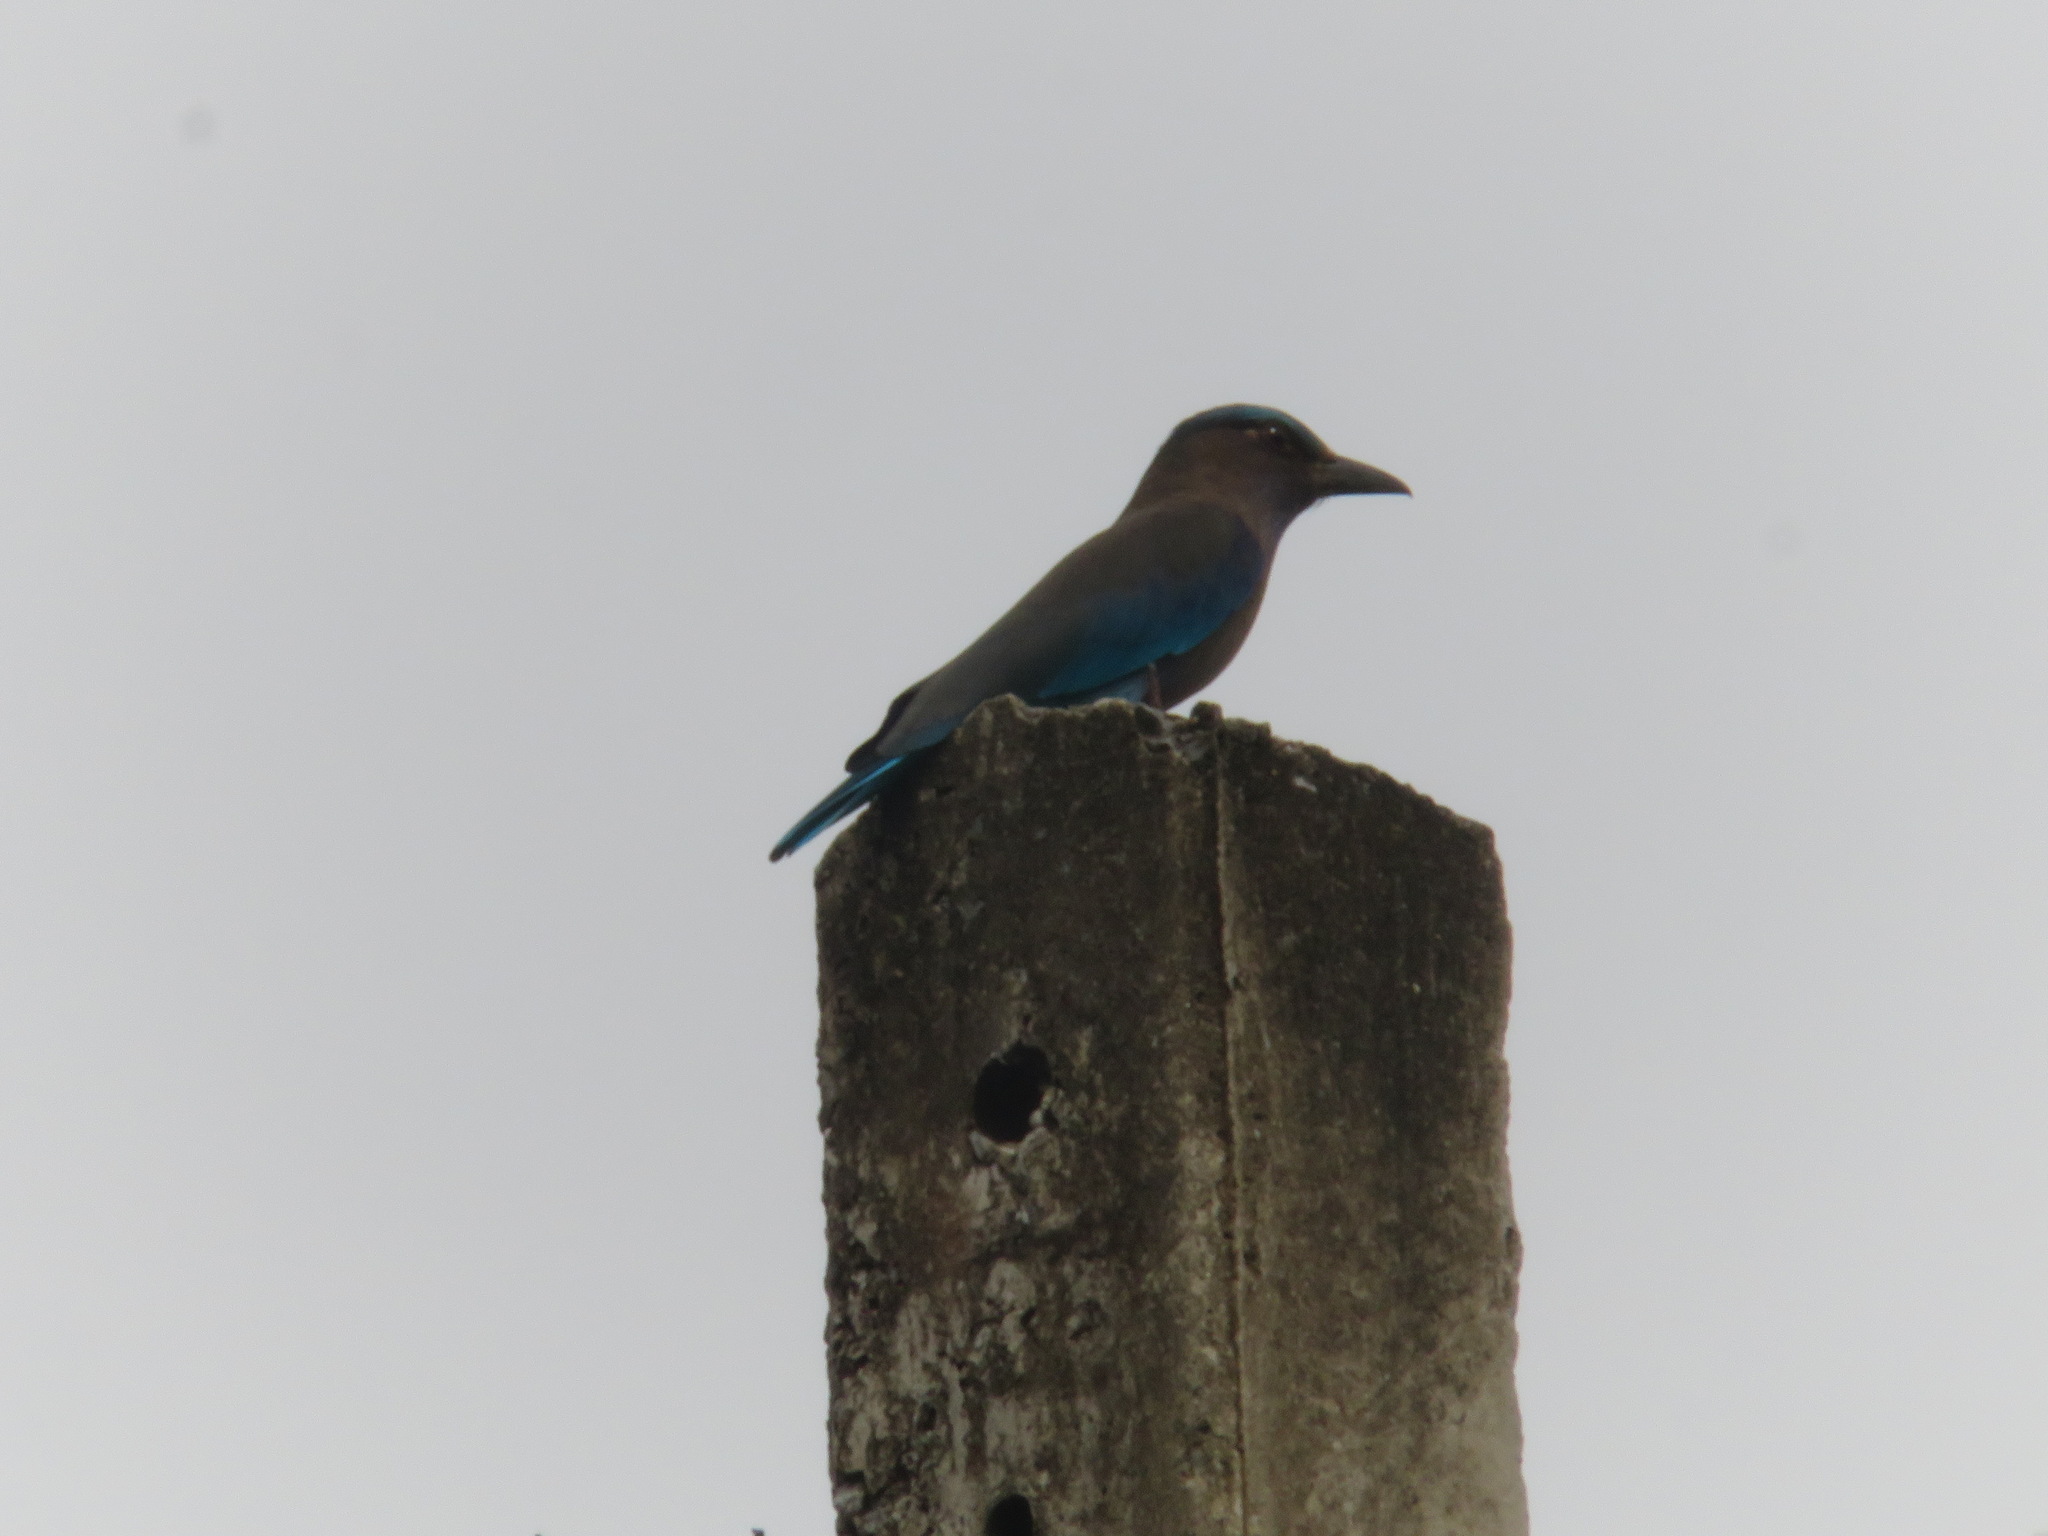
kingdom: Animalia
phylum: Chordata
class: Aves
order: Coraciiformes
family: Coraciidae
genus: Coracias
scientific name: Coracias affinis
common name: Indochinese roller
